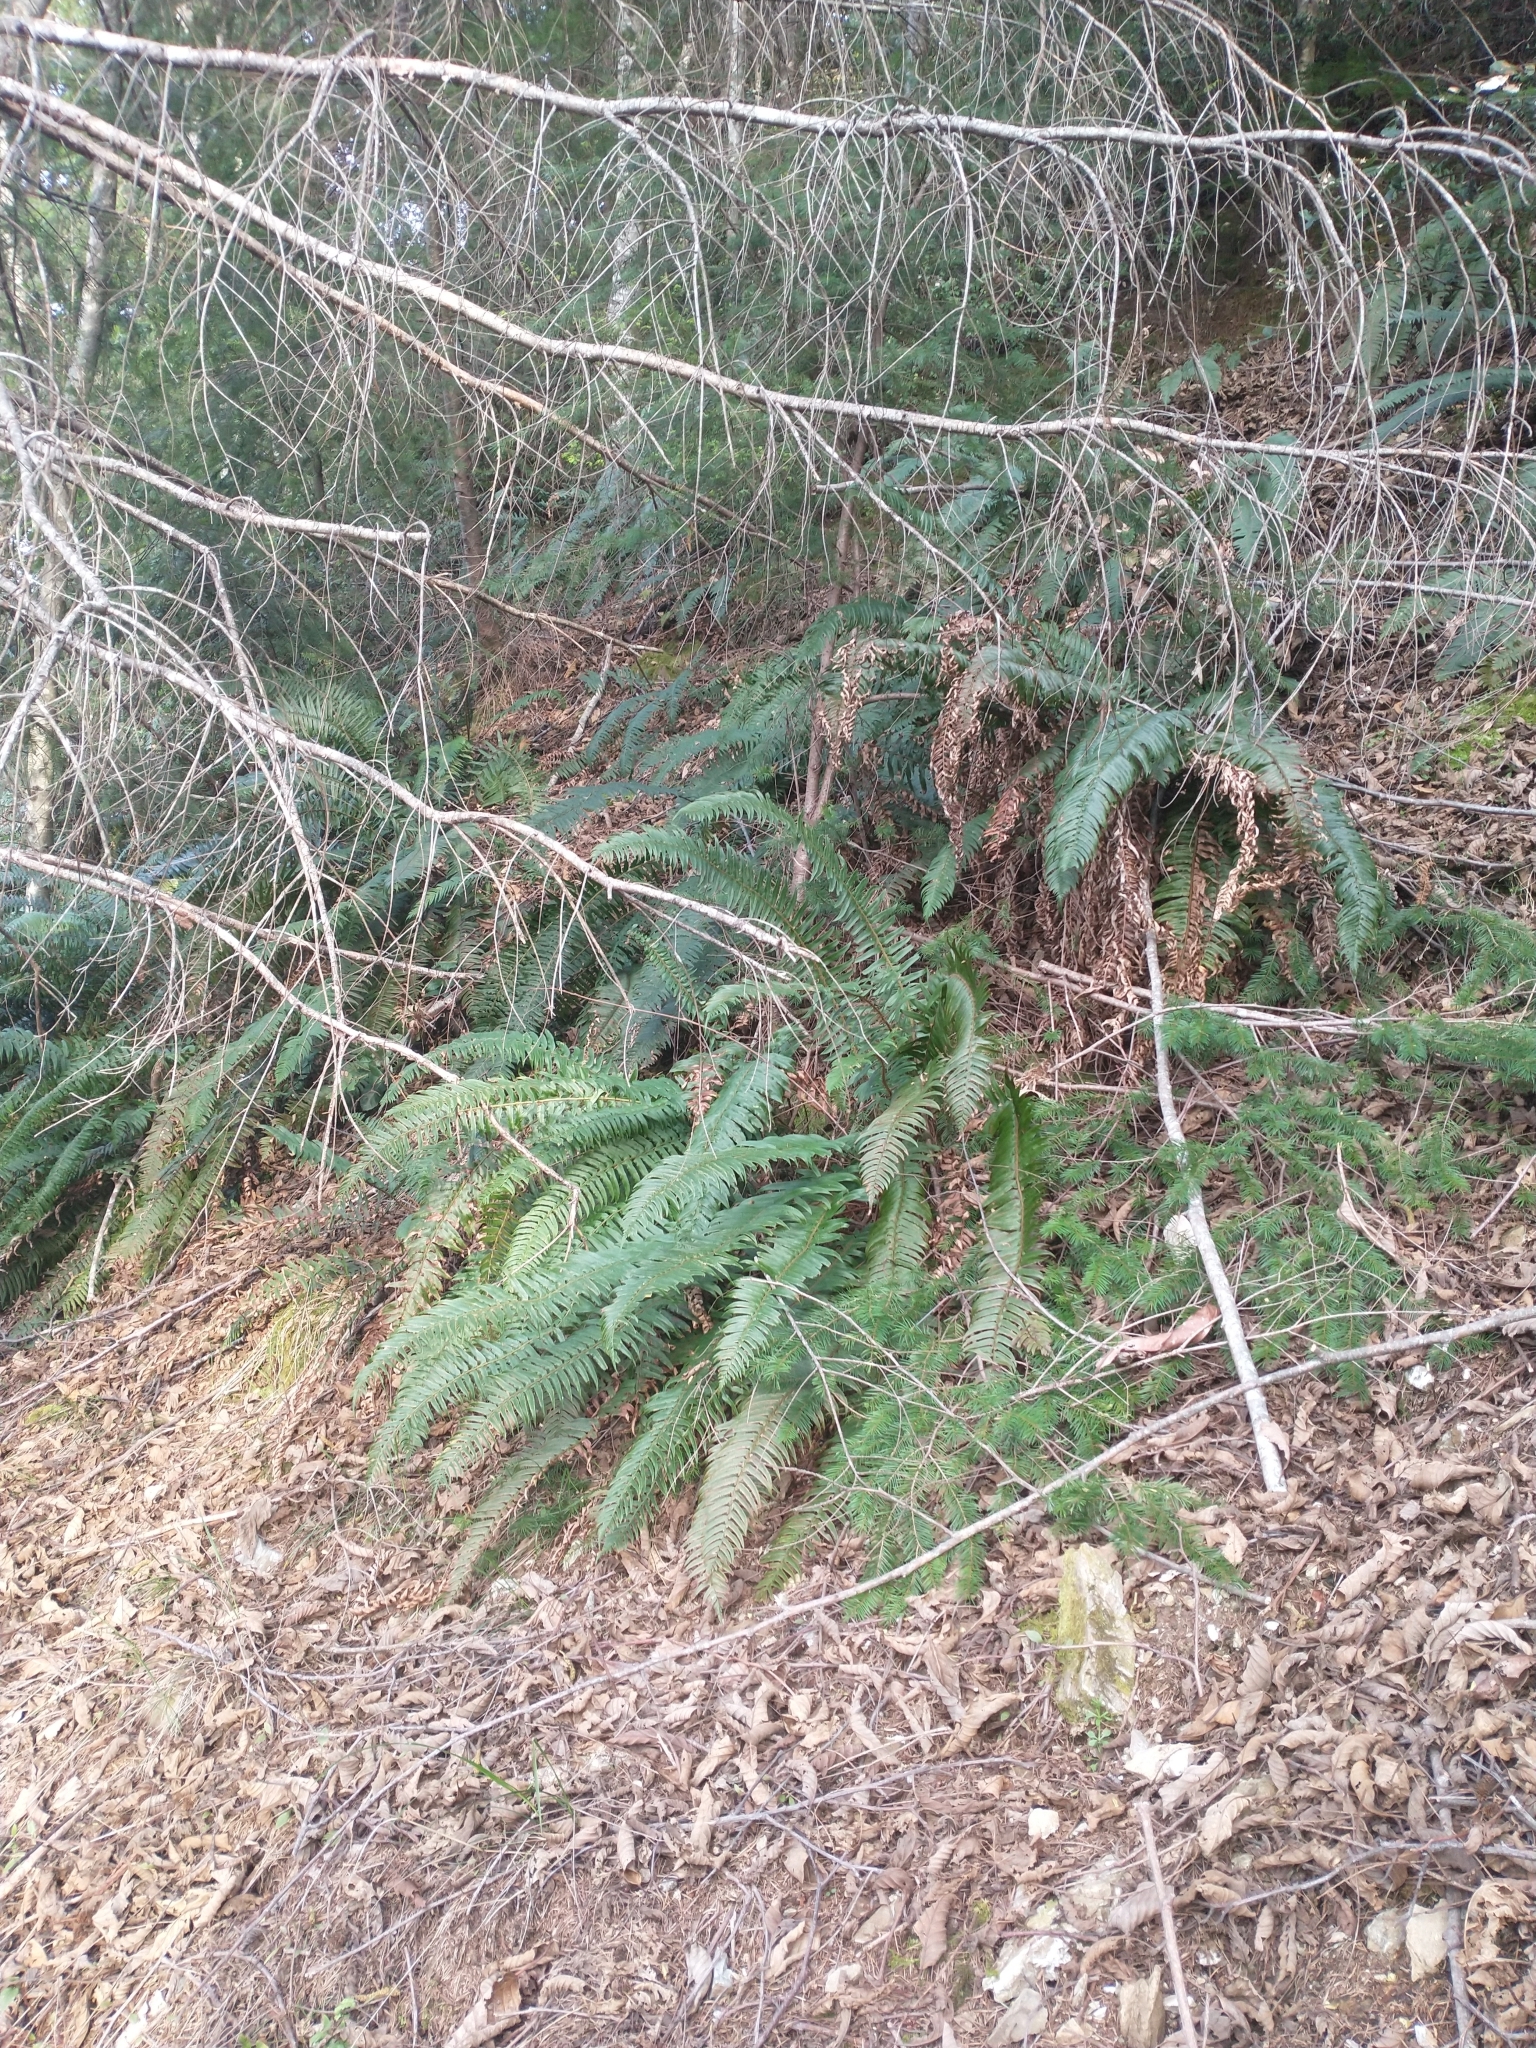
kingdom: Plantae
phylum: Tracheophyta
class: Polypodiopsida
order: Polypodiales
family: Dryopteridaceae
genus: Polystichum
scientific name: Polystichum munitum
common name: Western sword-fern
